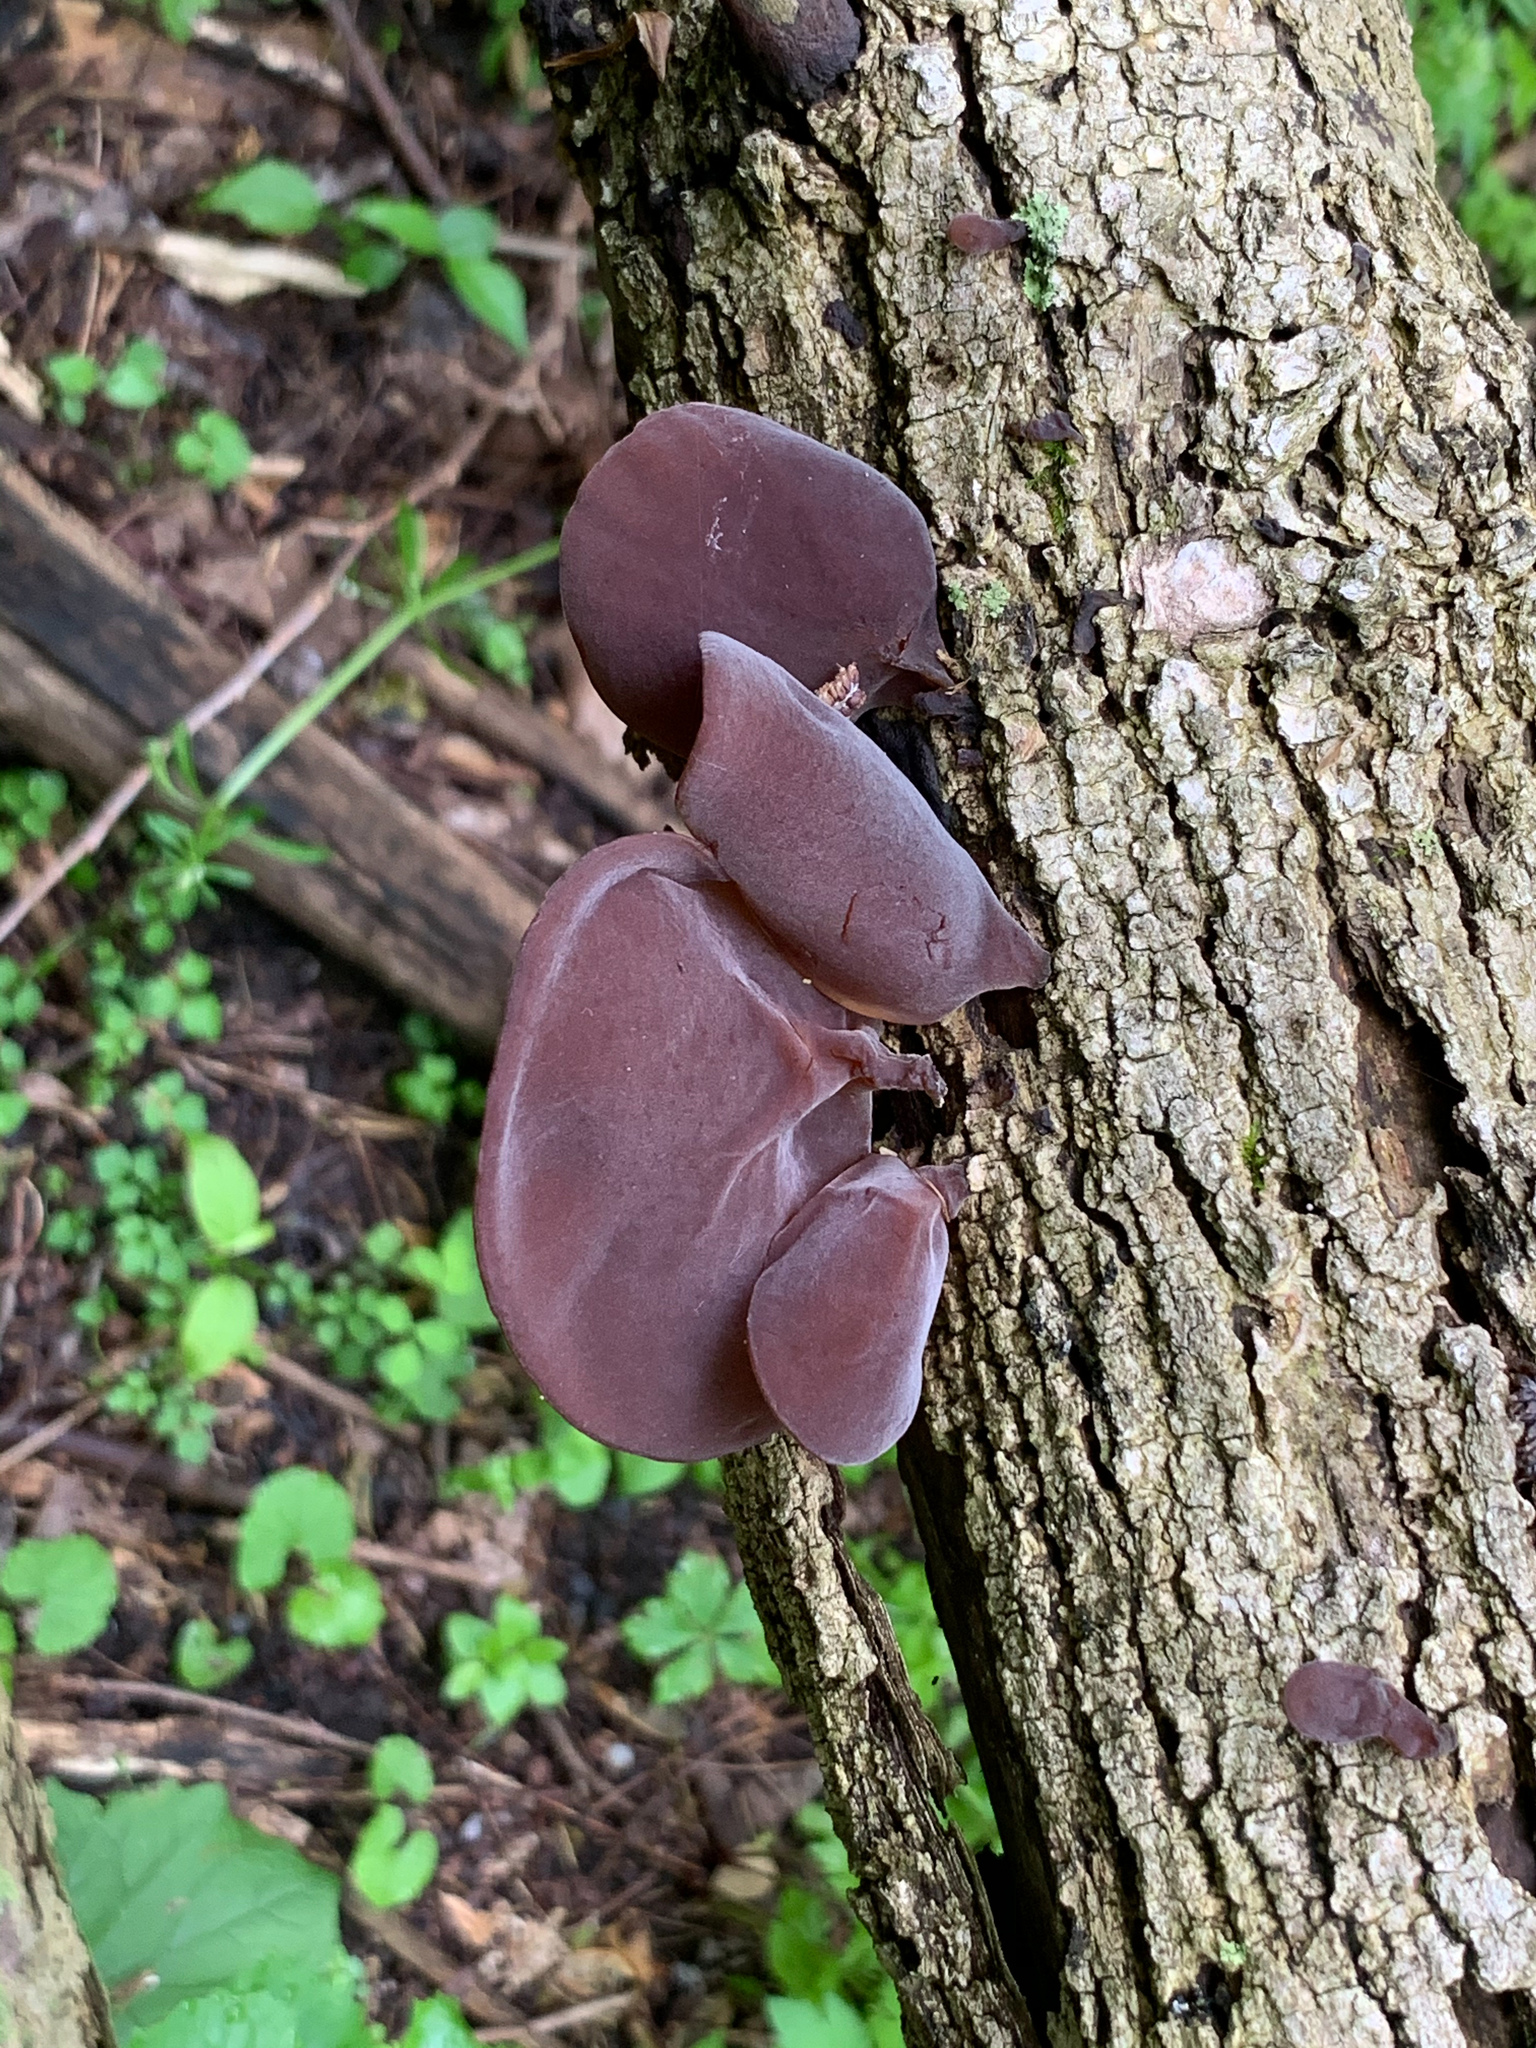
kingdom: Fungi
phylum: Basidiomycota
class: Agaricomycetes
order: Auriculariales
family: Auriculariaceae
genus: Auricularia
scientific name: Auricularia angiospermarum
